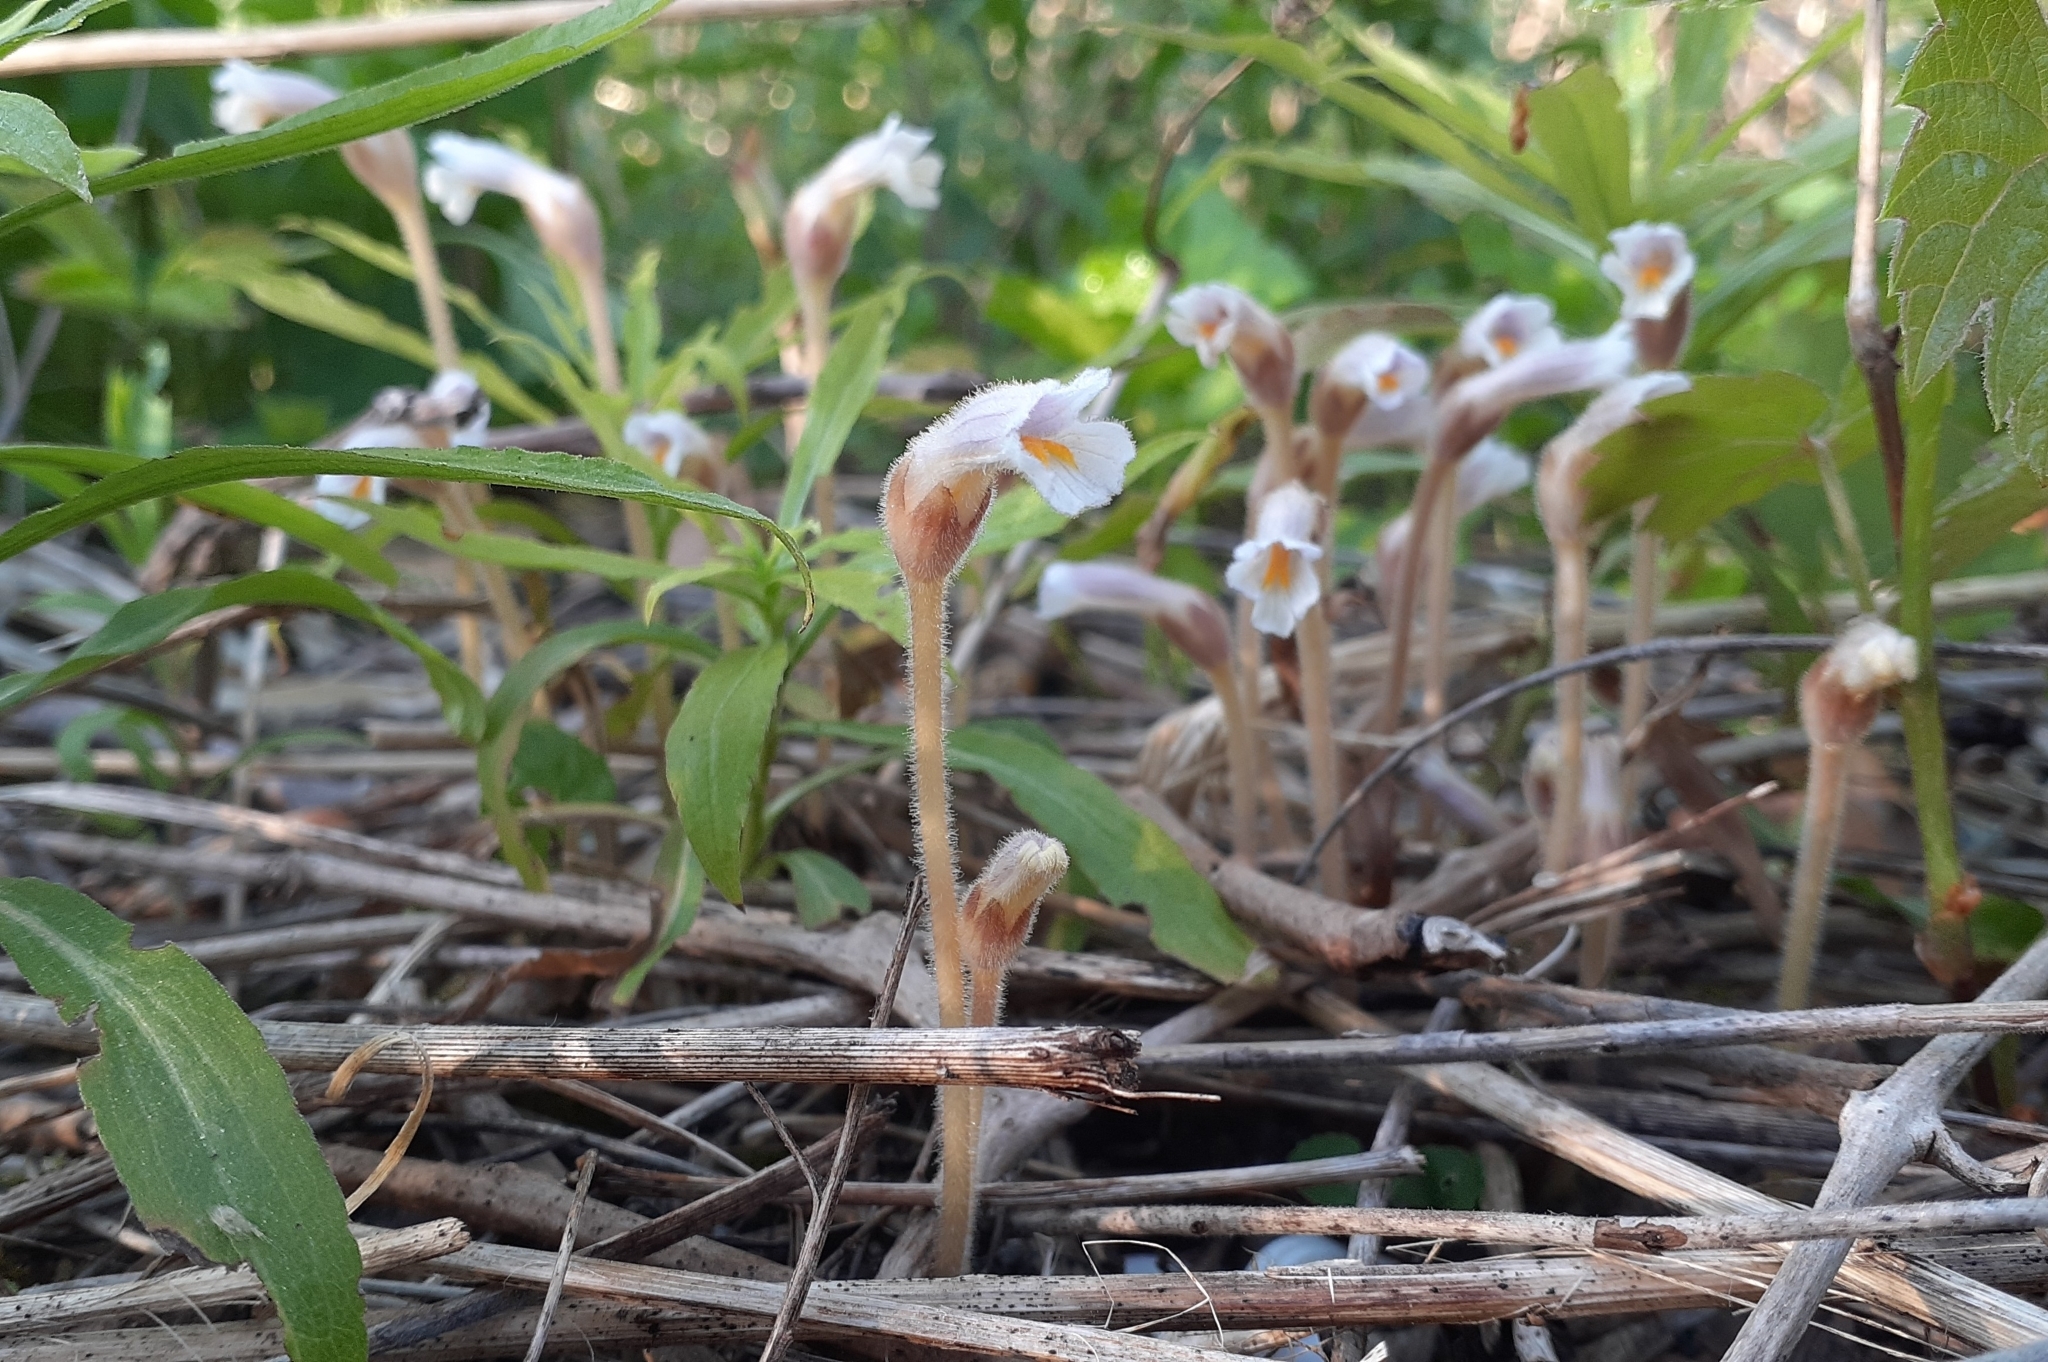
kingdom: Plantae
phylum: Tracheophyta
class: Magnoliopsida
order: Lamiales
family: Orobanchaceae
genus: Aphyllon
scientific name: Aphyllon uniflorum
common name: One-flowered broomrape
